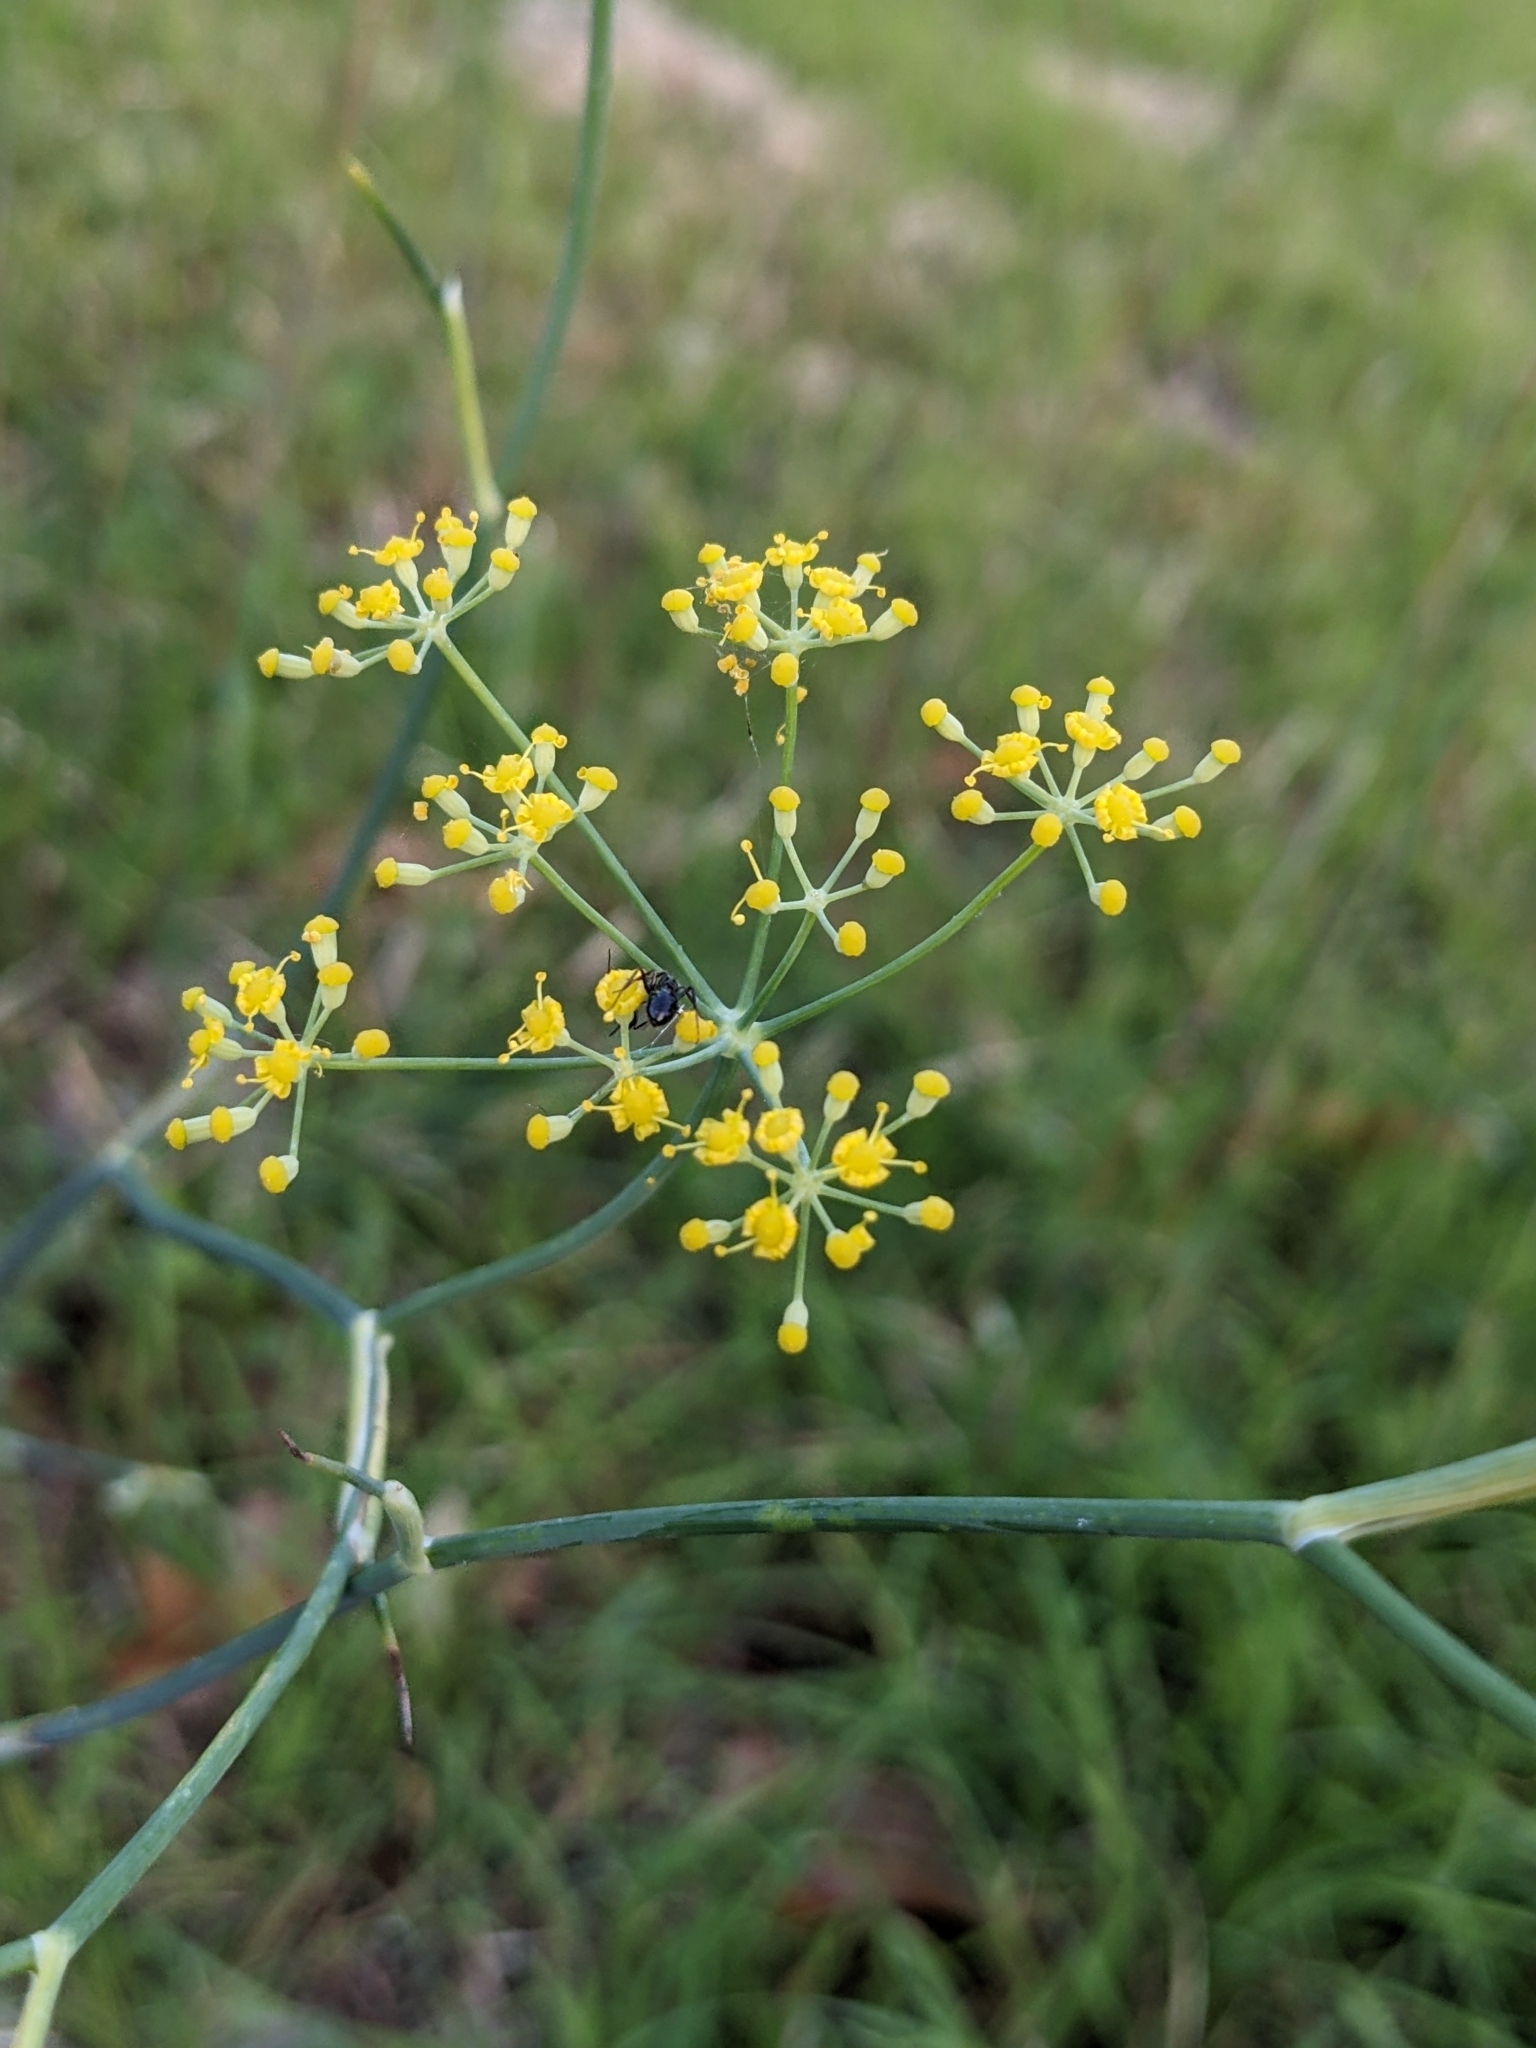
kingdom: Plantae
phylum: Tracheophyta
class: Magnoliopsida
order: Apiales
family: Apiaceae
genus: Foeniculum
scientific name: Foeniculum vulgare
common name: Fennel
